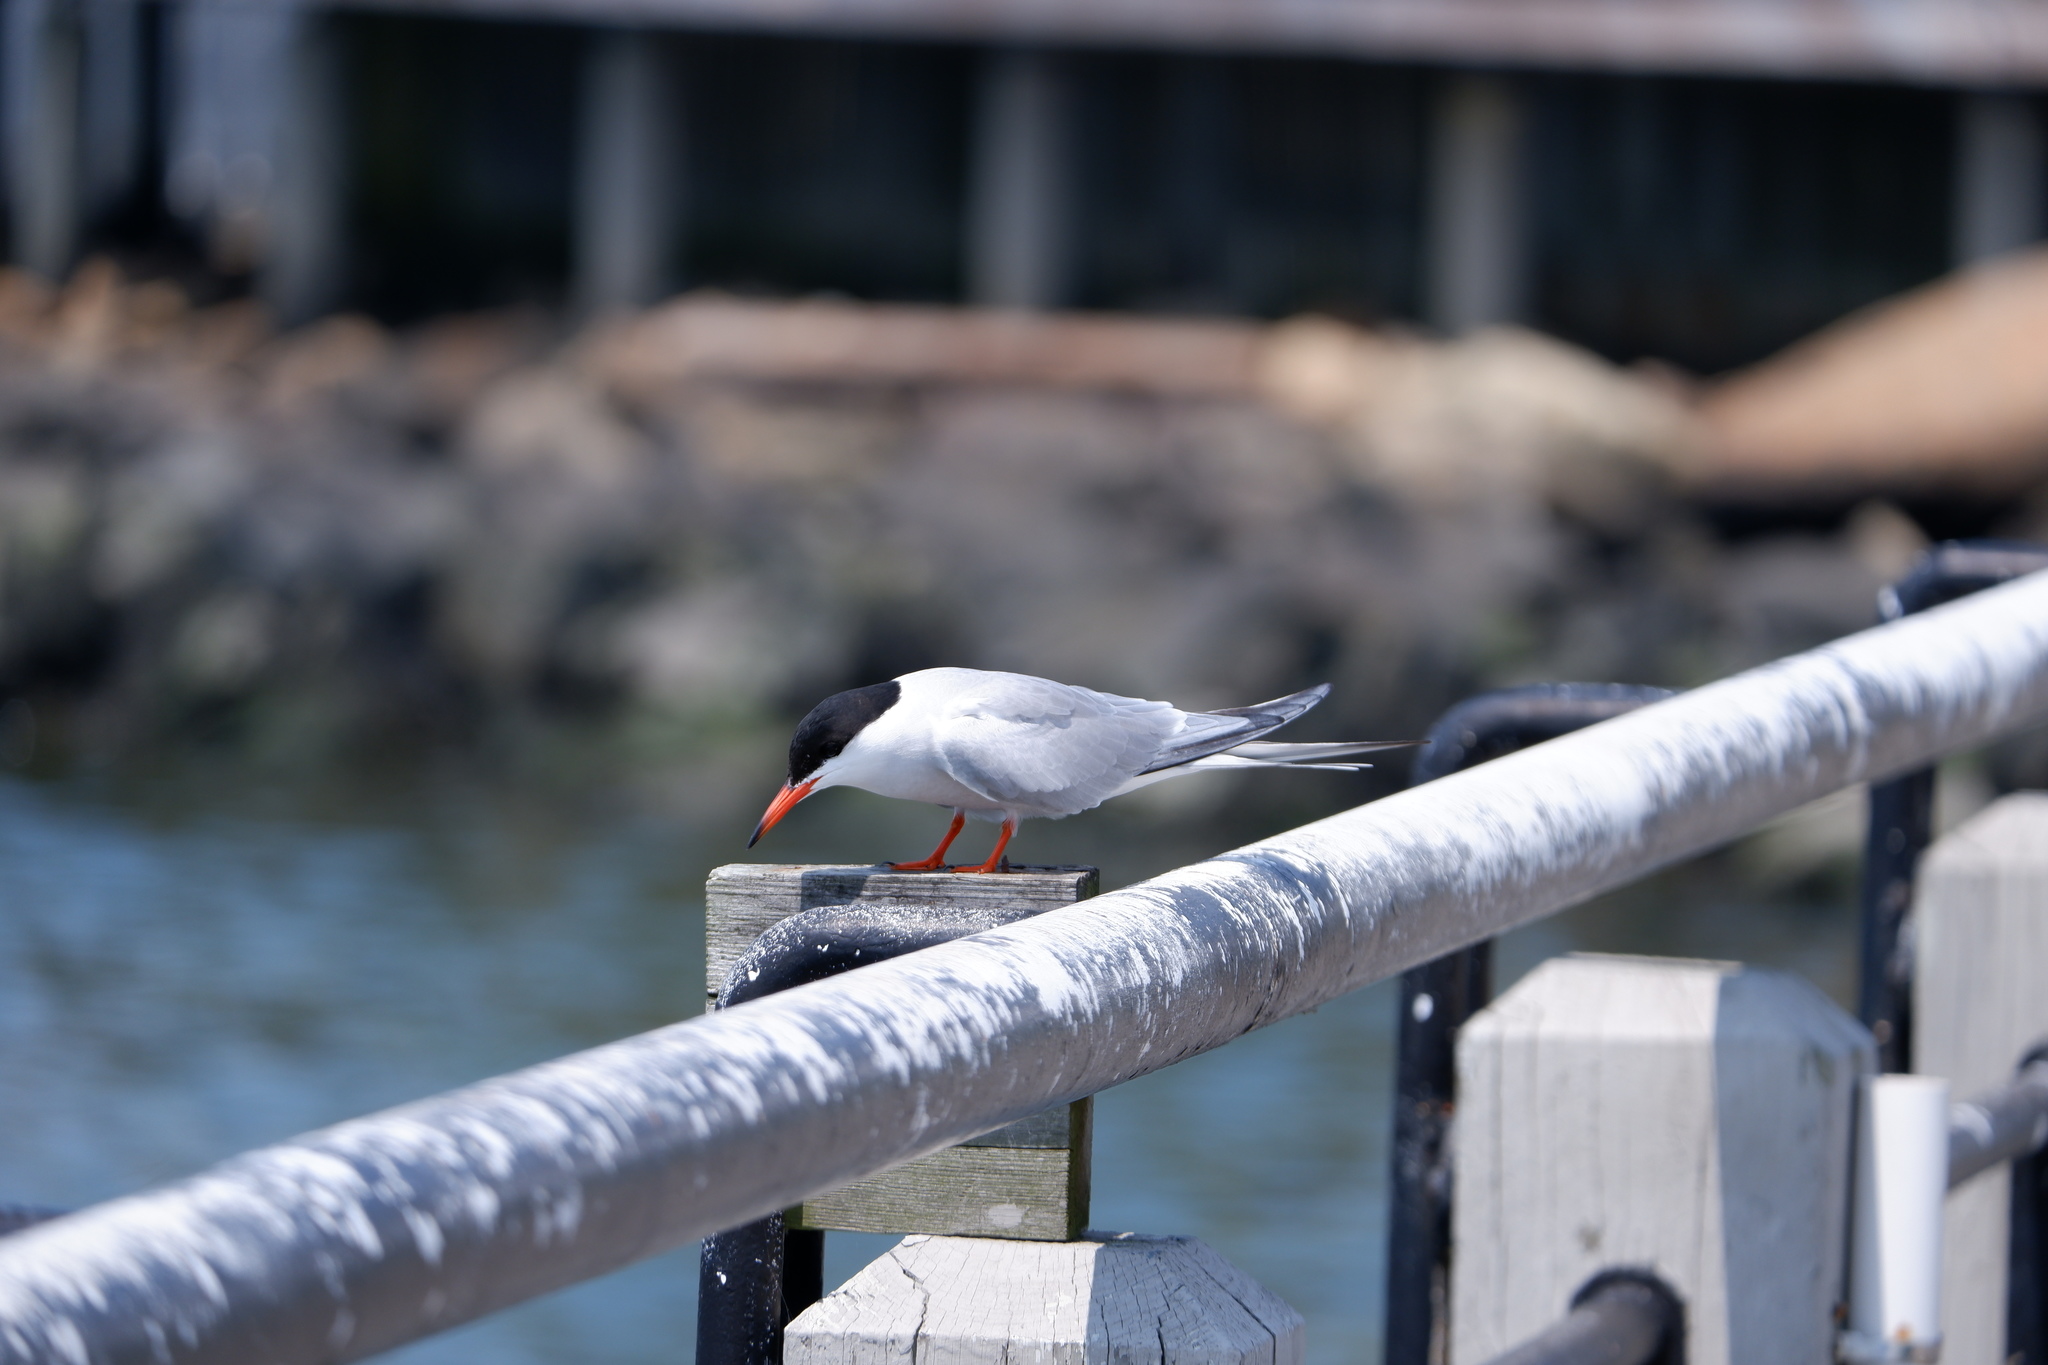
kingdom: Animalia
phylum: Chordata
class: Aves
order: Charadriiformes
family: Laridae
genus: Sterna
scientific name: Sterna hirundo
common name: Common tern
